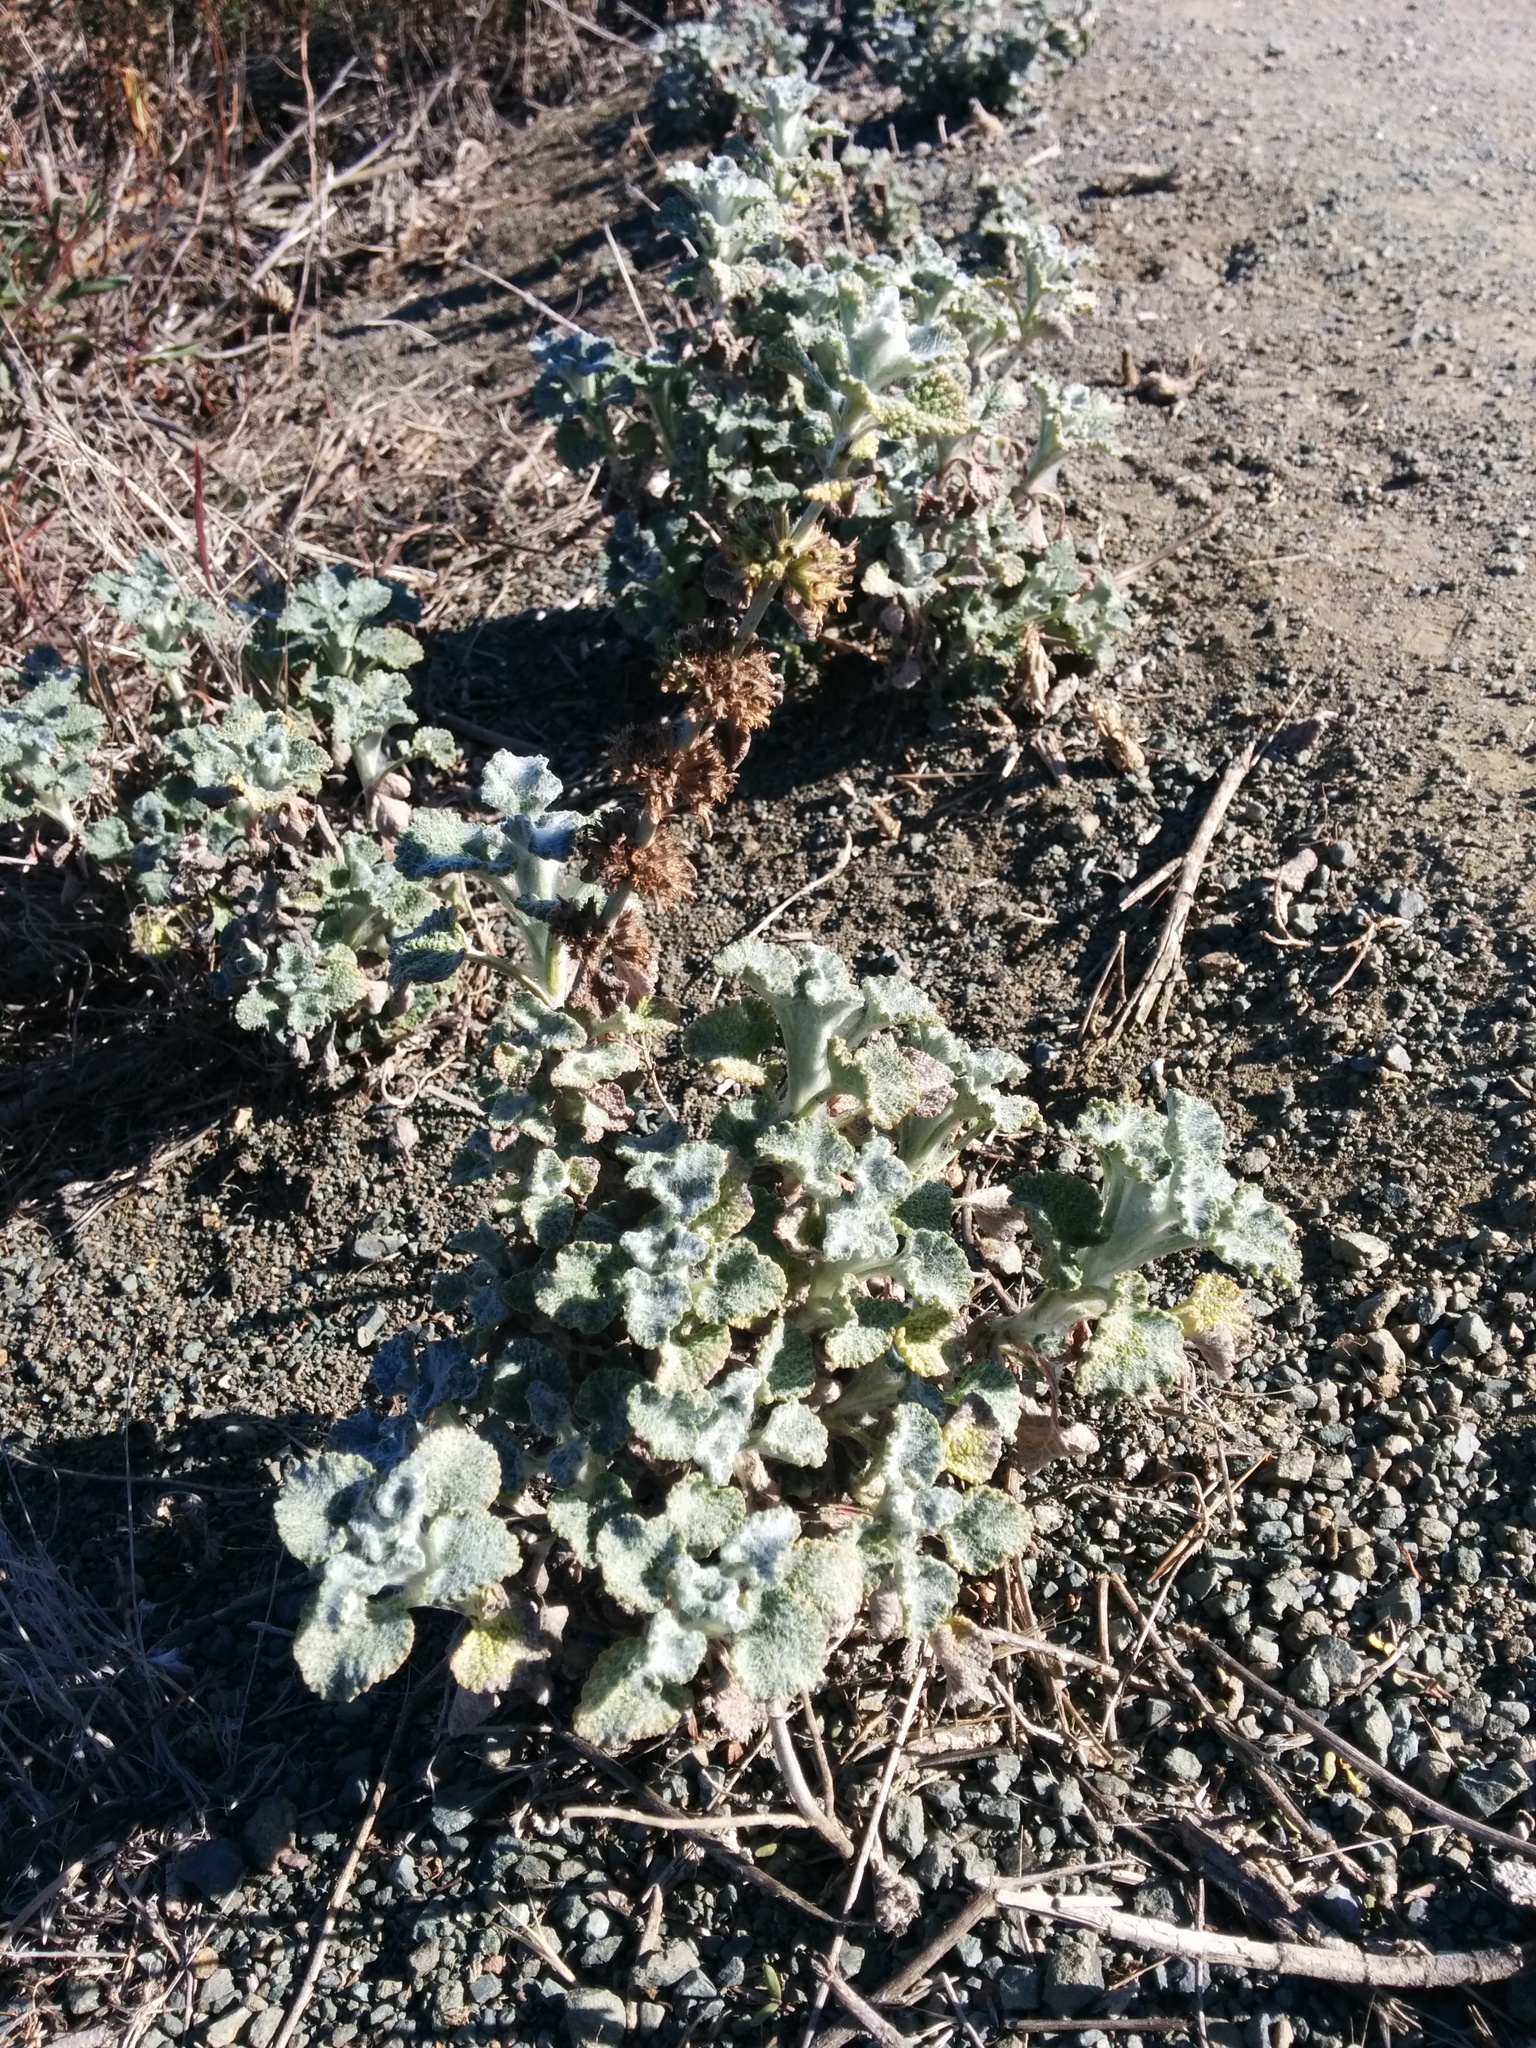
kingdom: Plantae
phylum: Tracheophyta
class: Magnoliopsida
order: Lamiales
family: Lamiaceae
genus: Marrubium
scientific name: Marrubium vulgare
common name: Horehound
